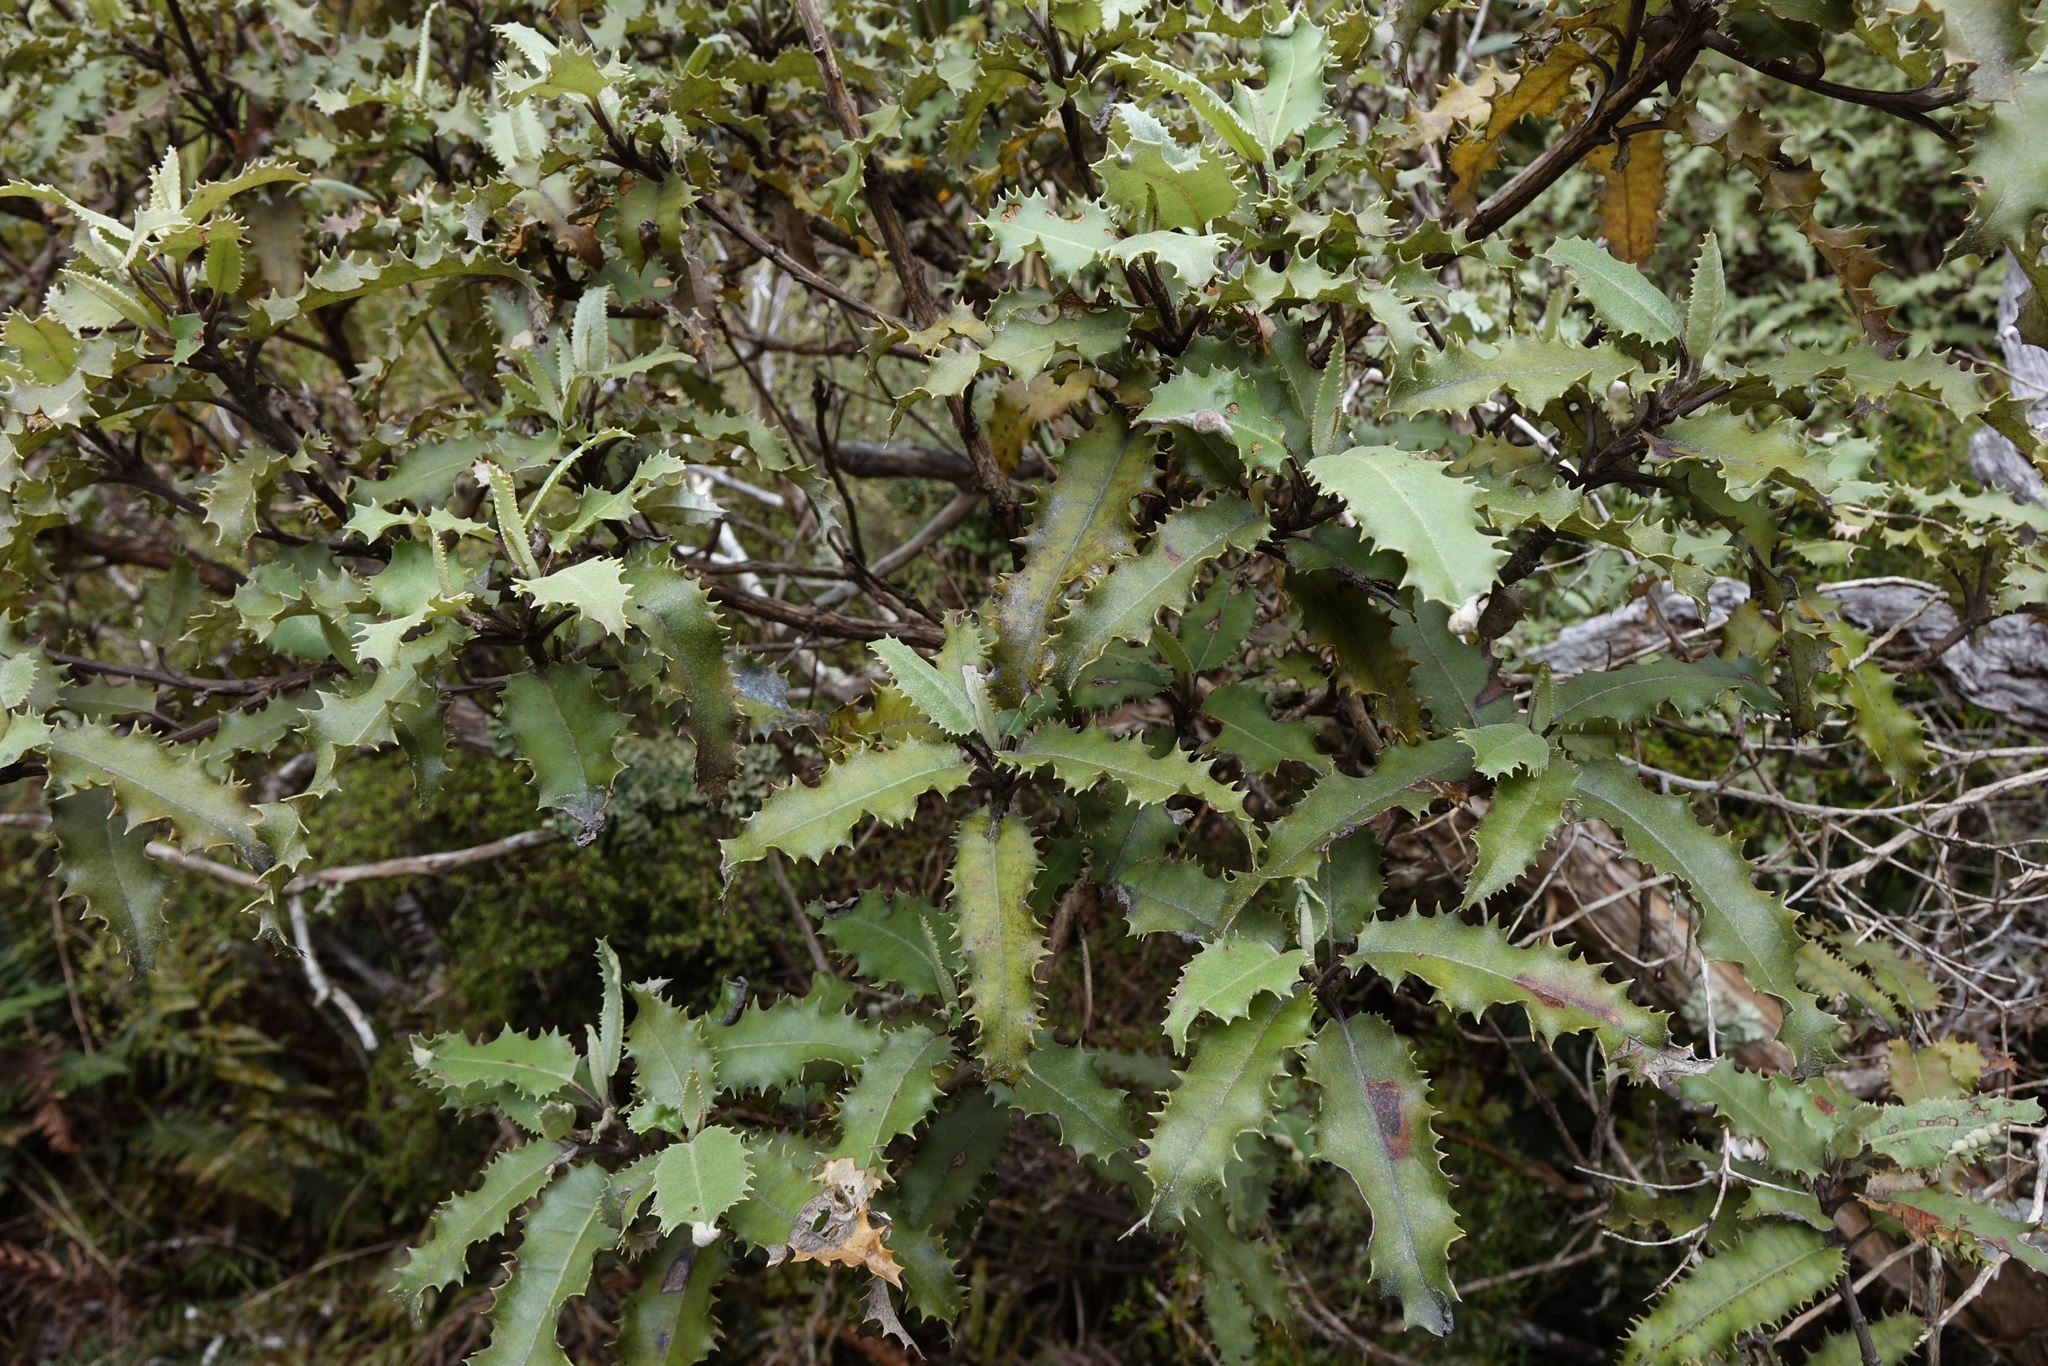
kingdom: Plantae
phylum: Tracheophyta
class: Magnoliopsida
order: Asterales
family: Asteraceae
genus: Olearia
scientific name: Olearia ilicifolia
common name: Maori-holly
